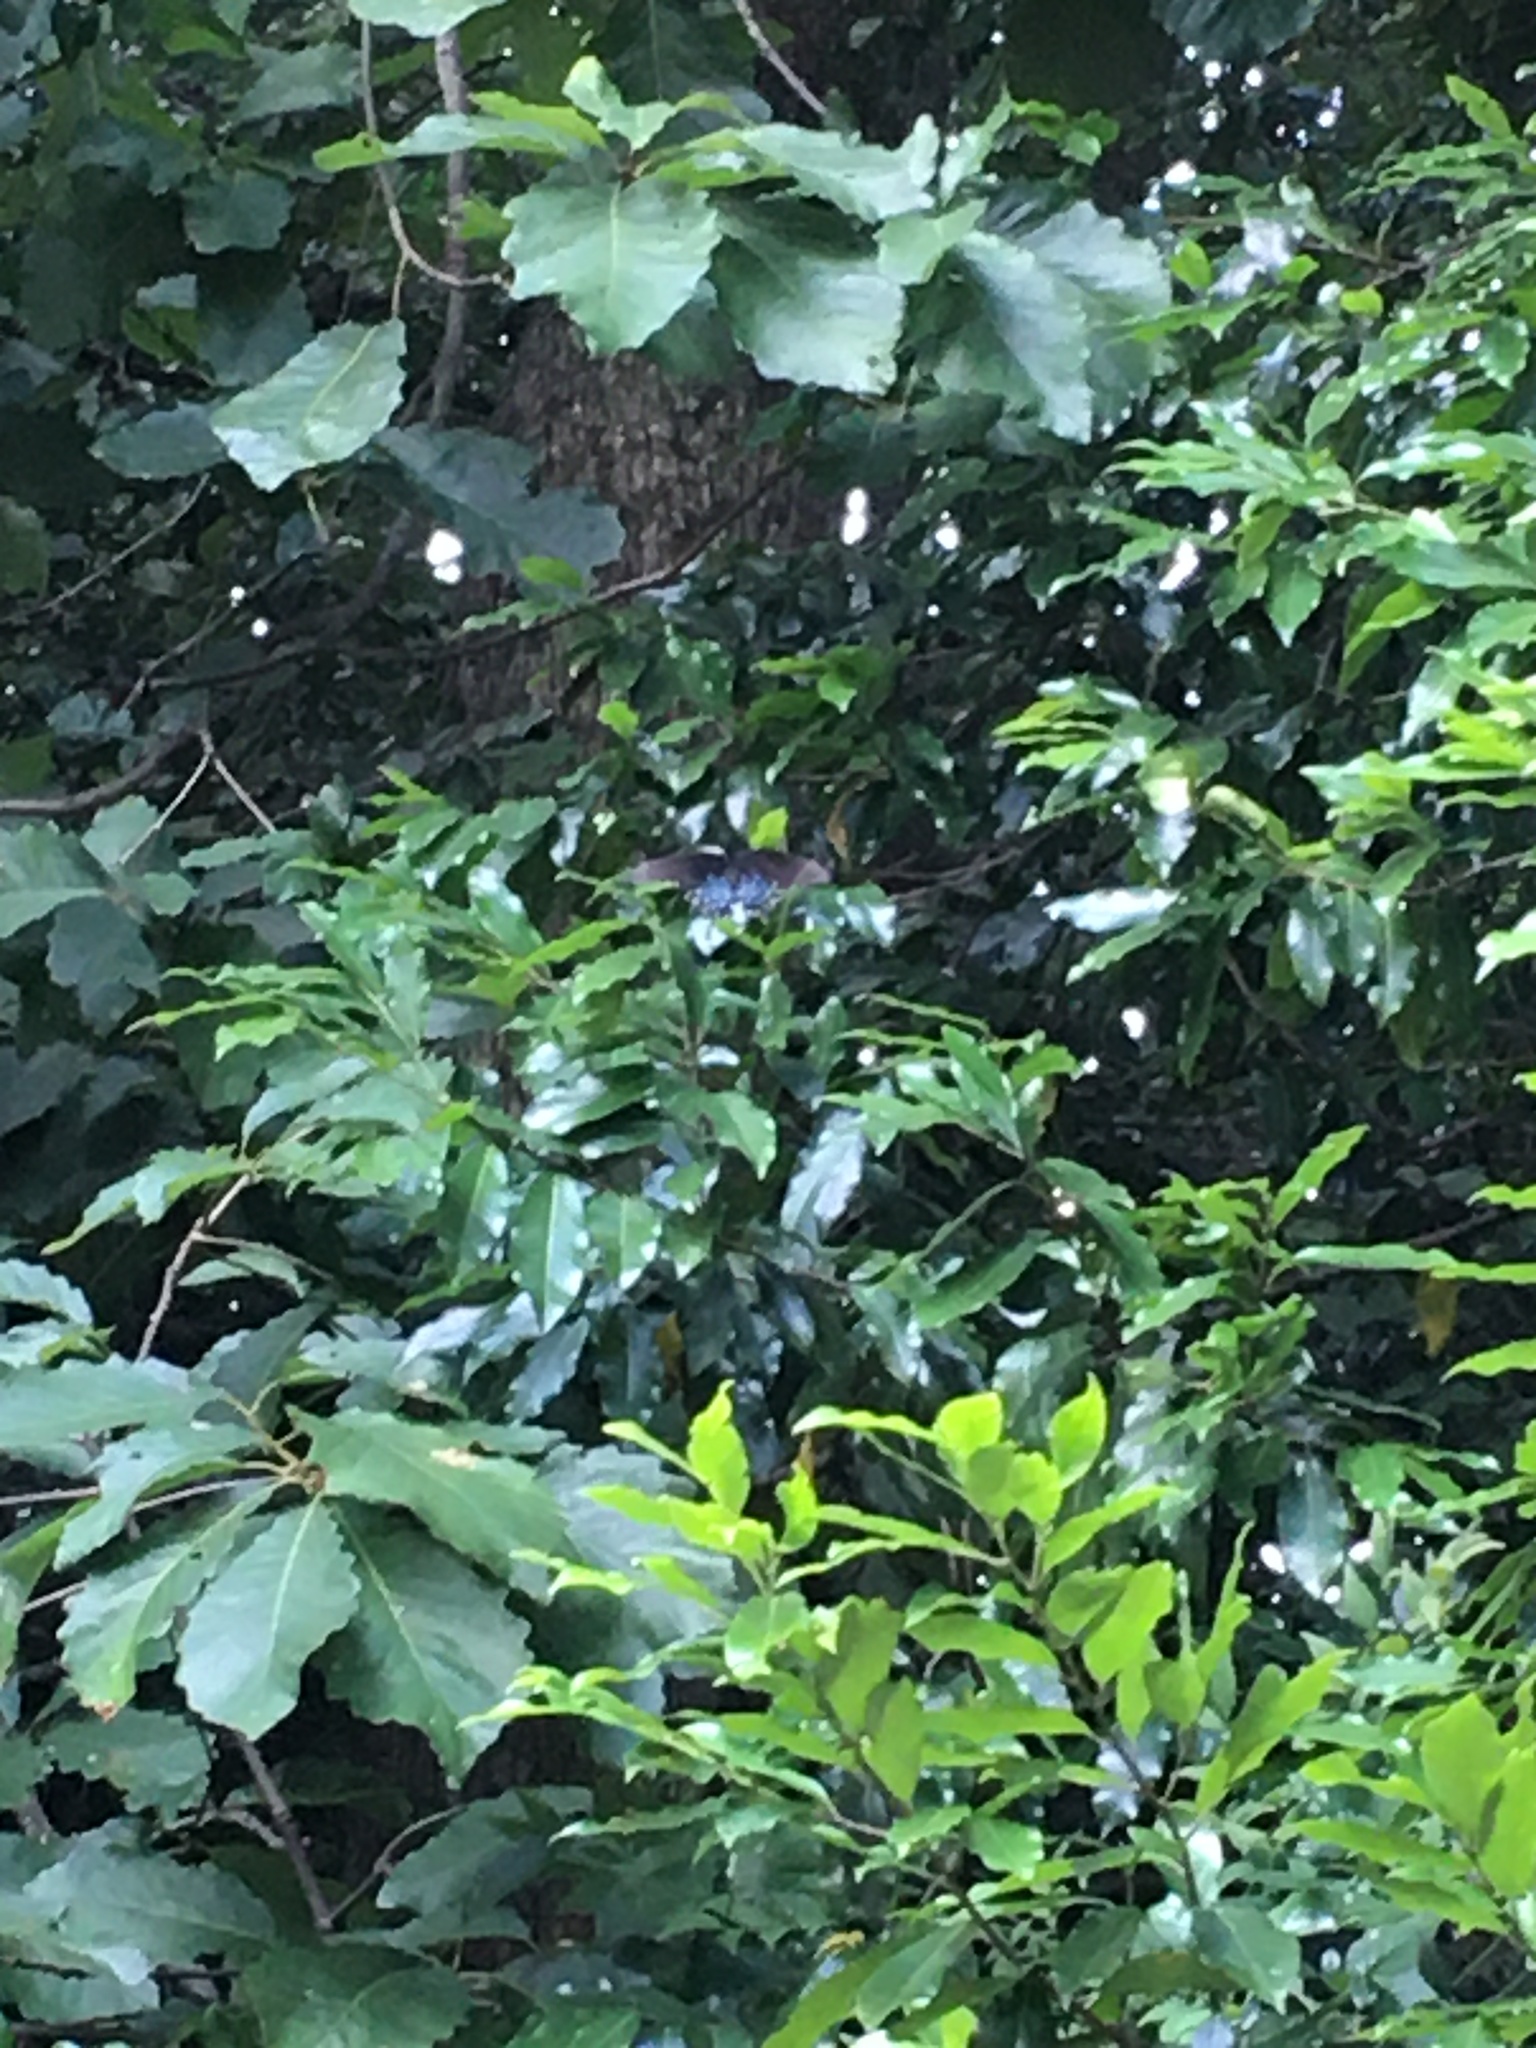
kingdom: Animalia
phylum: Arthropoda
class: Insecta
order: Lepidoptera
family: Papilionidae
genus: Papilio
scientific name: Papilio glaucus
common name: Tiger swallowtail
